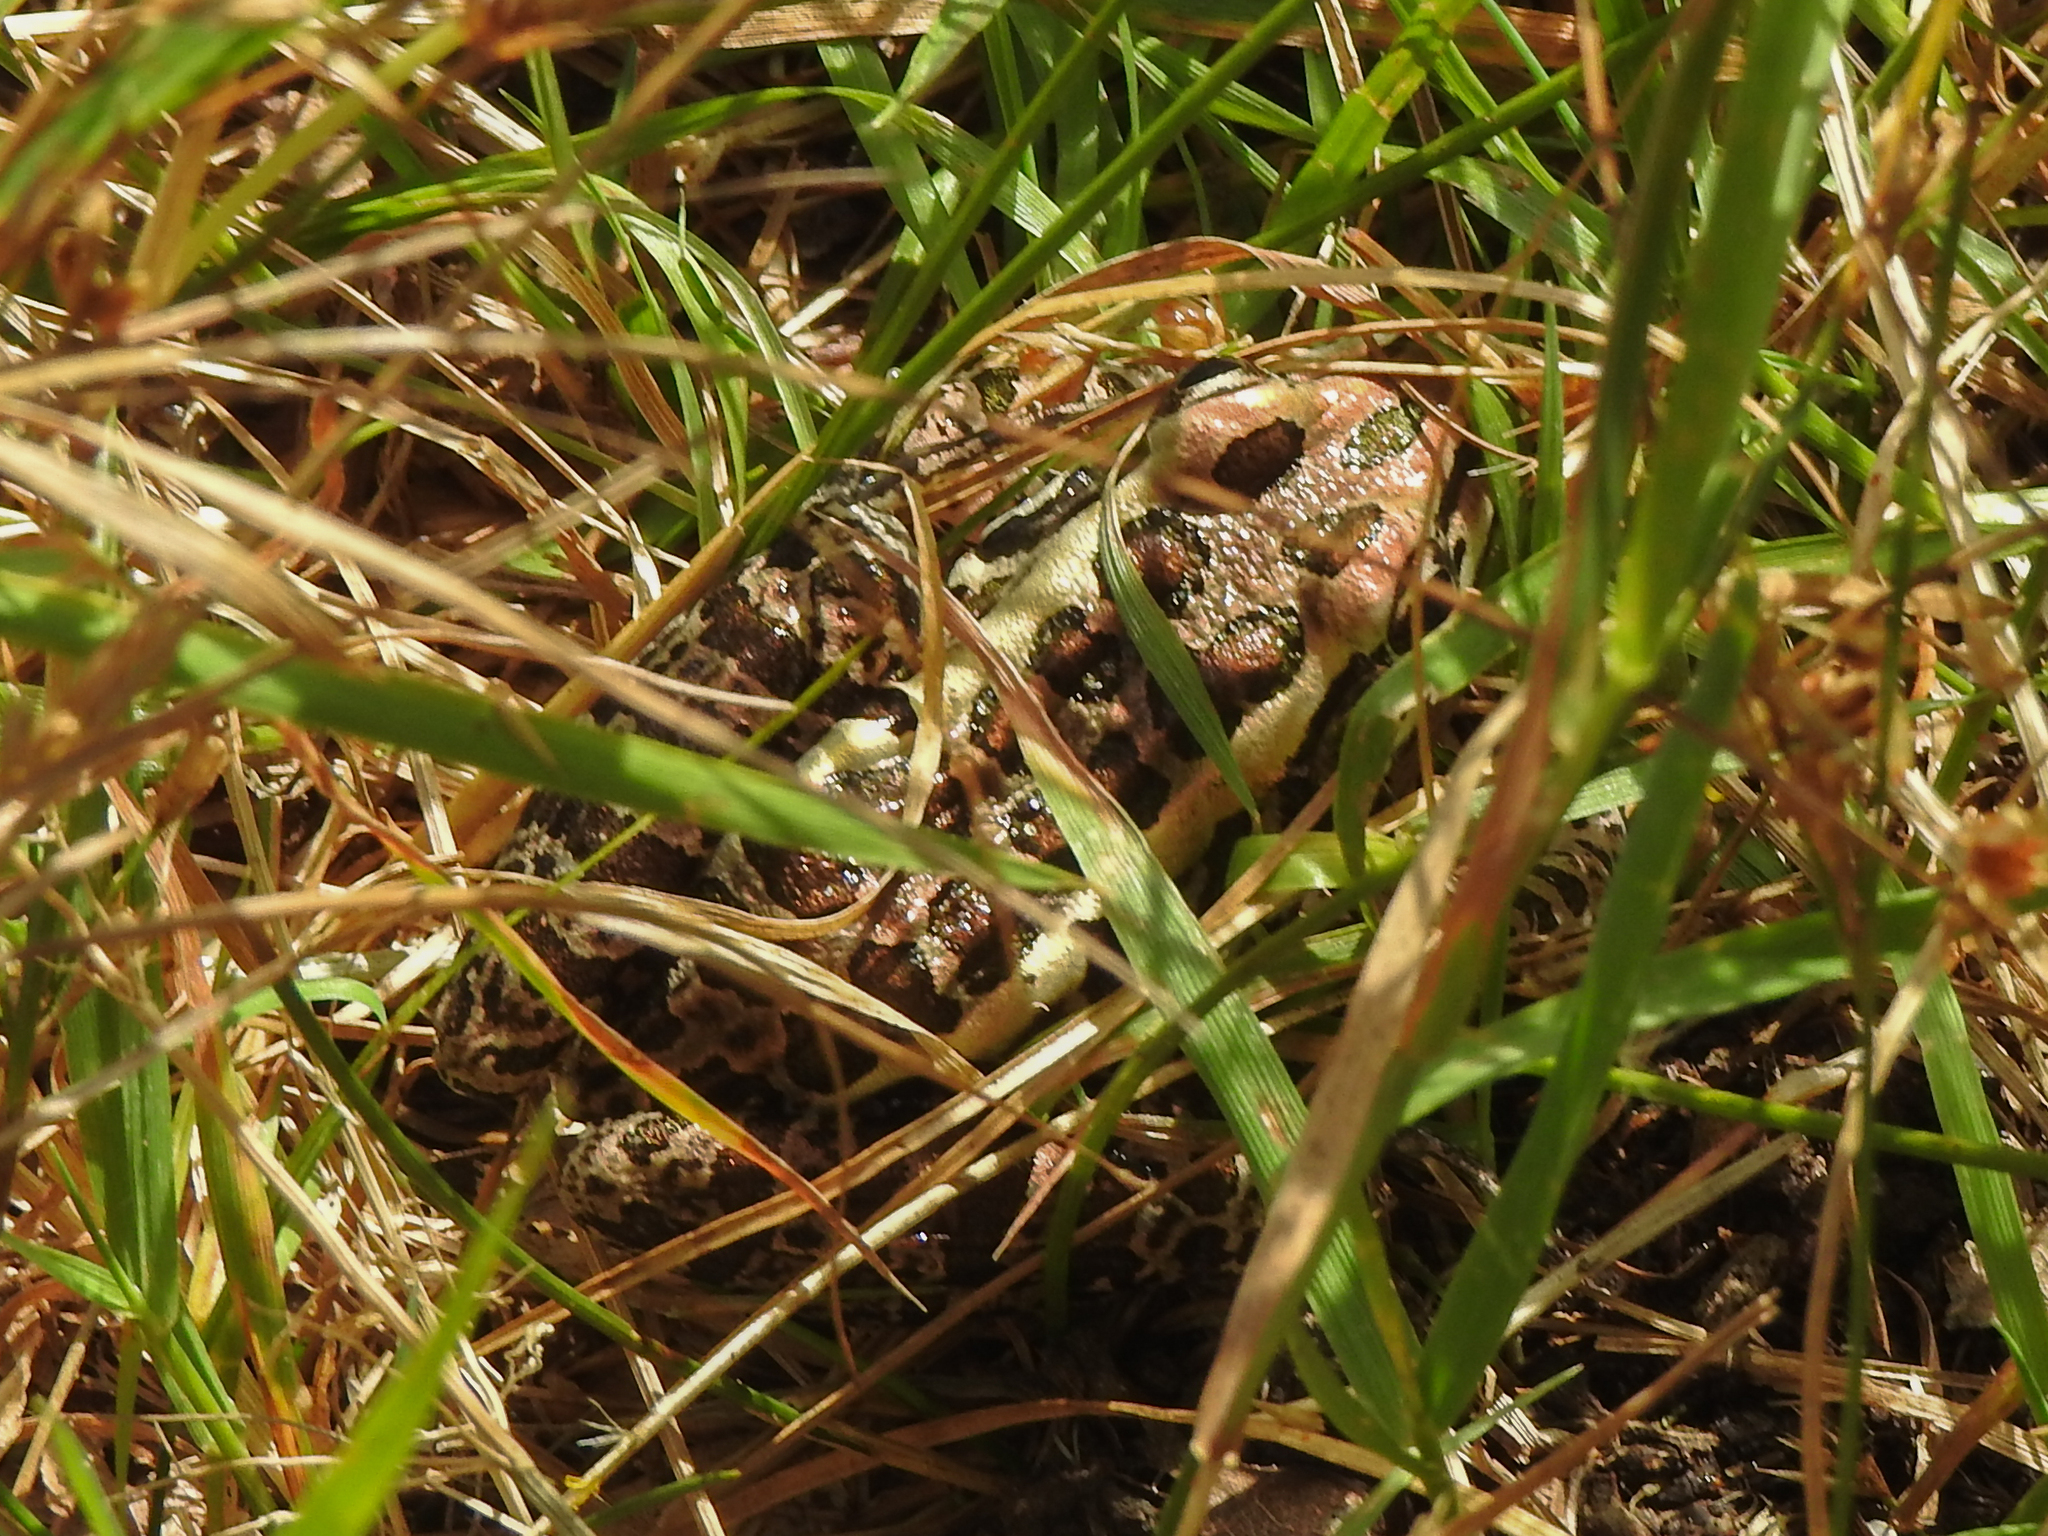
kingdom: Animalia
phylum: Chordata
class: Amphibia
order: Anura
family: Ranidae
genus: Lithobates
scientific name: Lithobates palustris
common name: Pickerel frog
